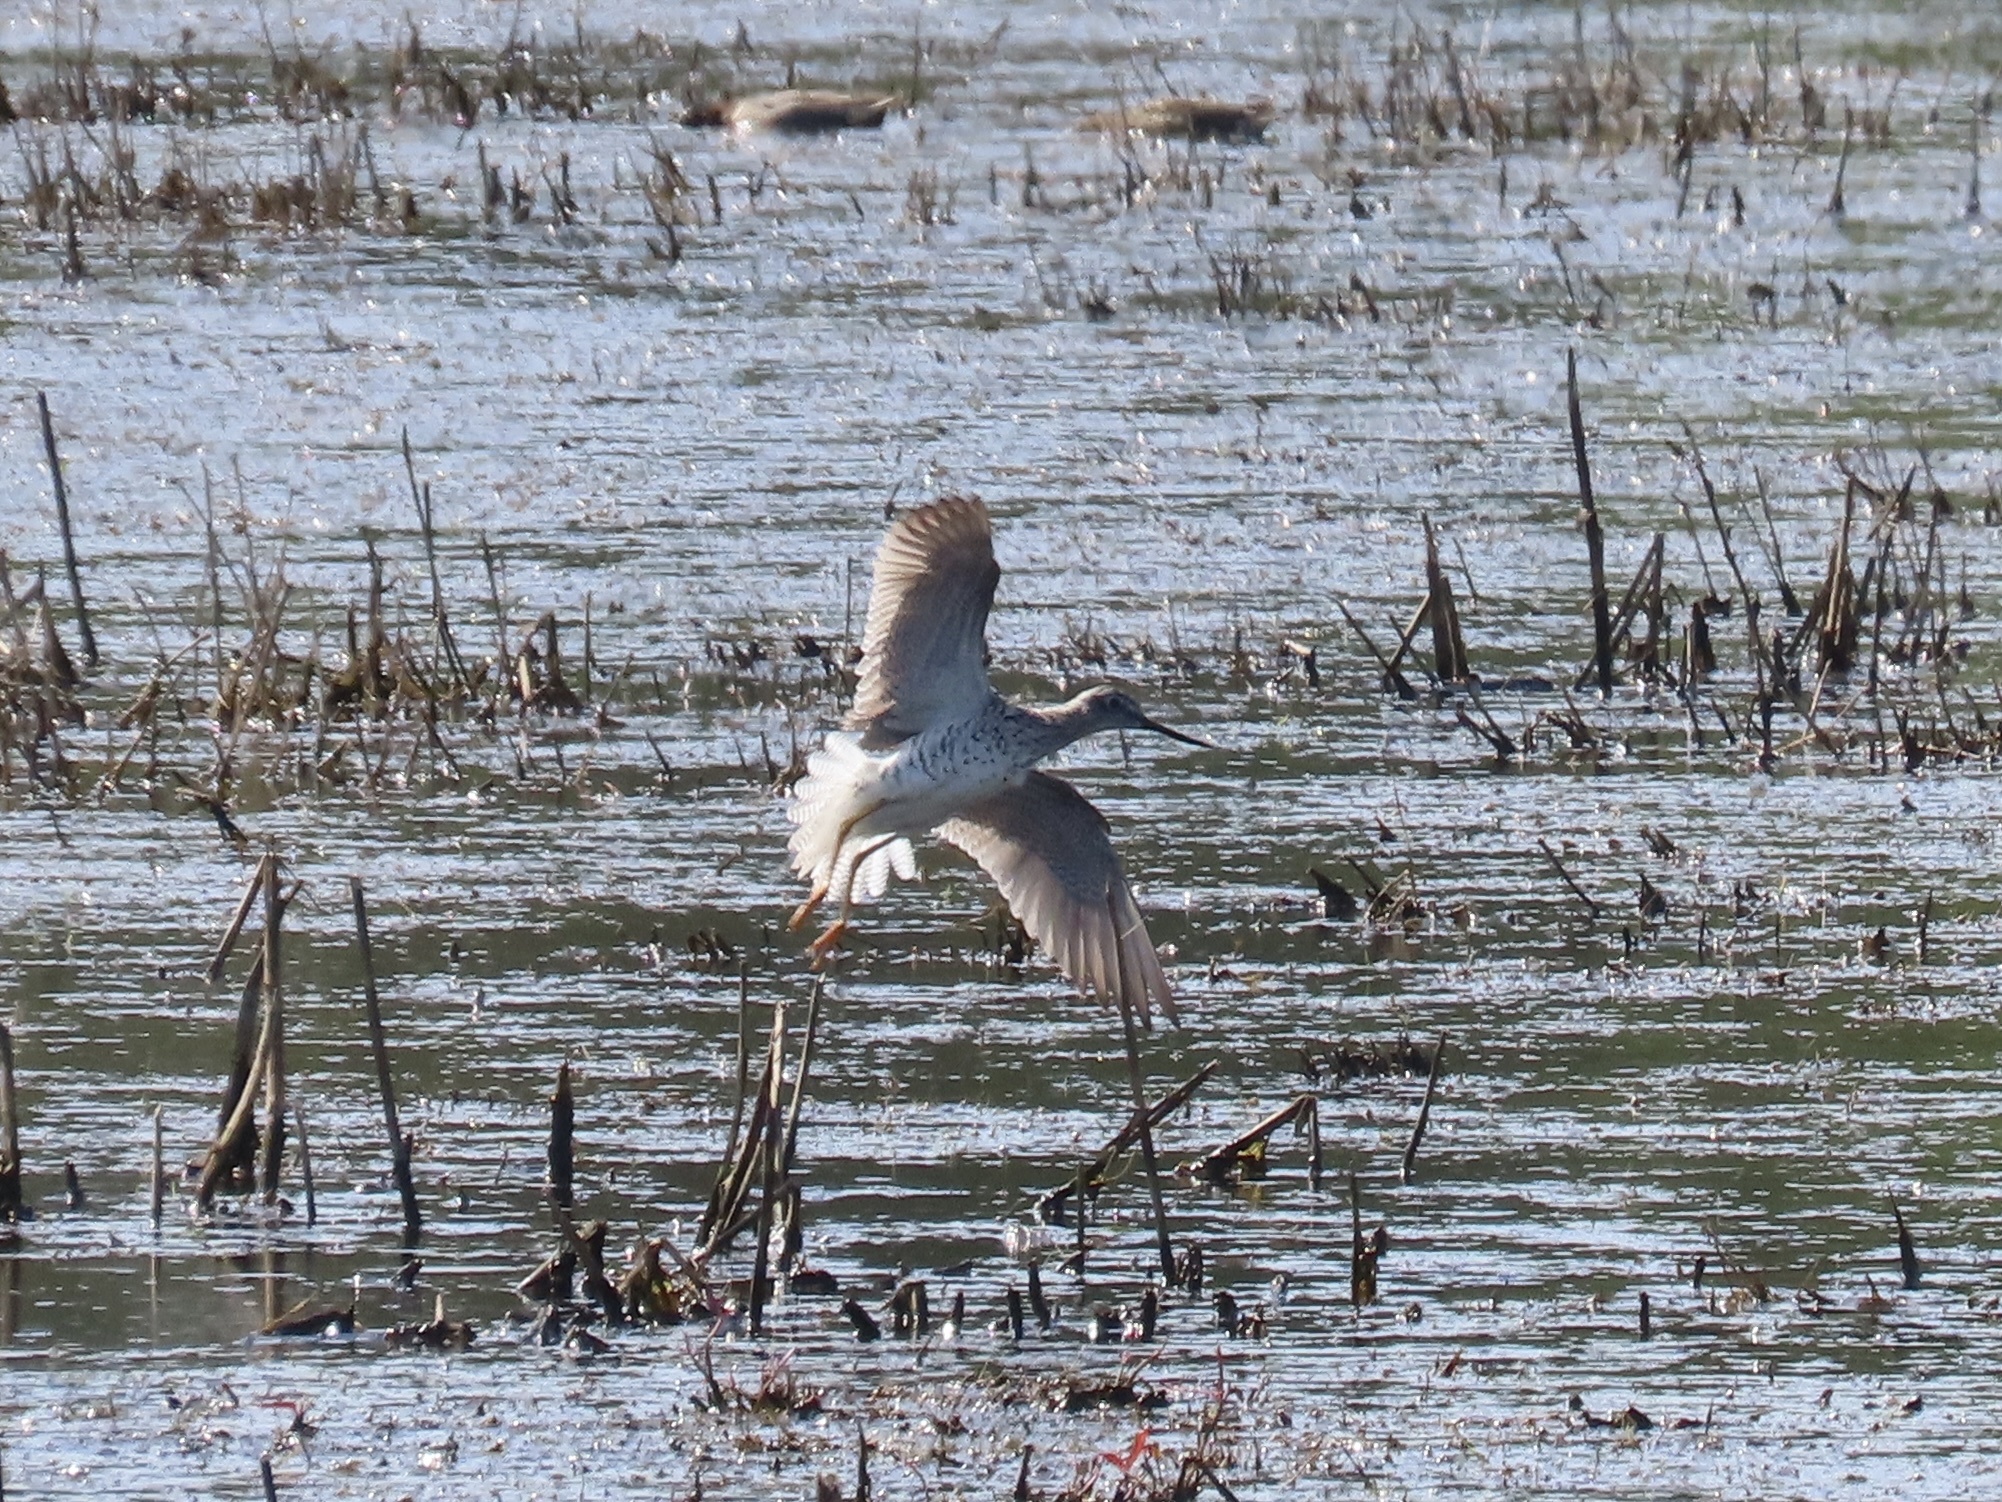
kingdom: Animalia
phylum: Chordata
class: Aves
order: Charadriiformes
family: Scolopacidae
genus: Tringa
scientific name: Tringa melanoleuca
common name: Greater yellowlegs
